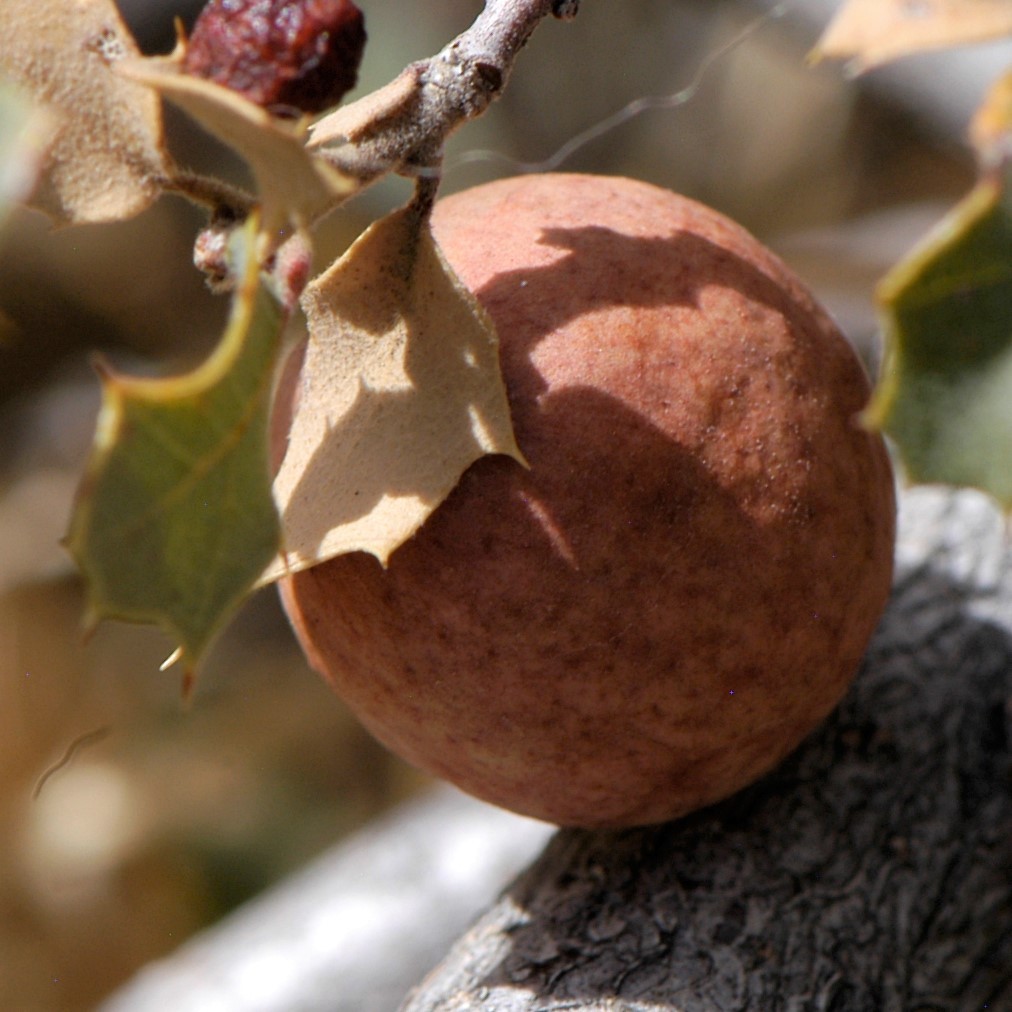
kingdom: Animalia
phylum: Arthropoda
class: Insecta
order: Hymenoptera
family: Cynipidae
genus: Atrusca
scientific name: Atrusca
